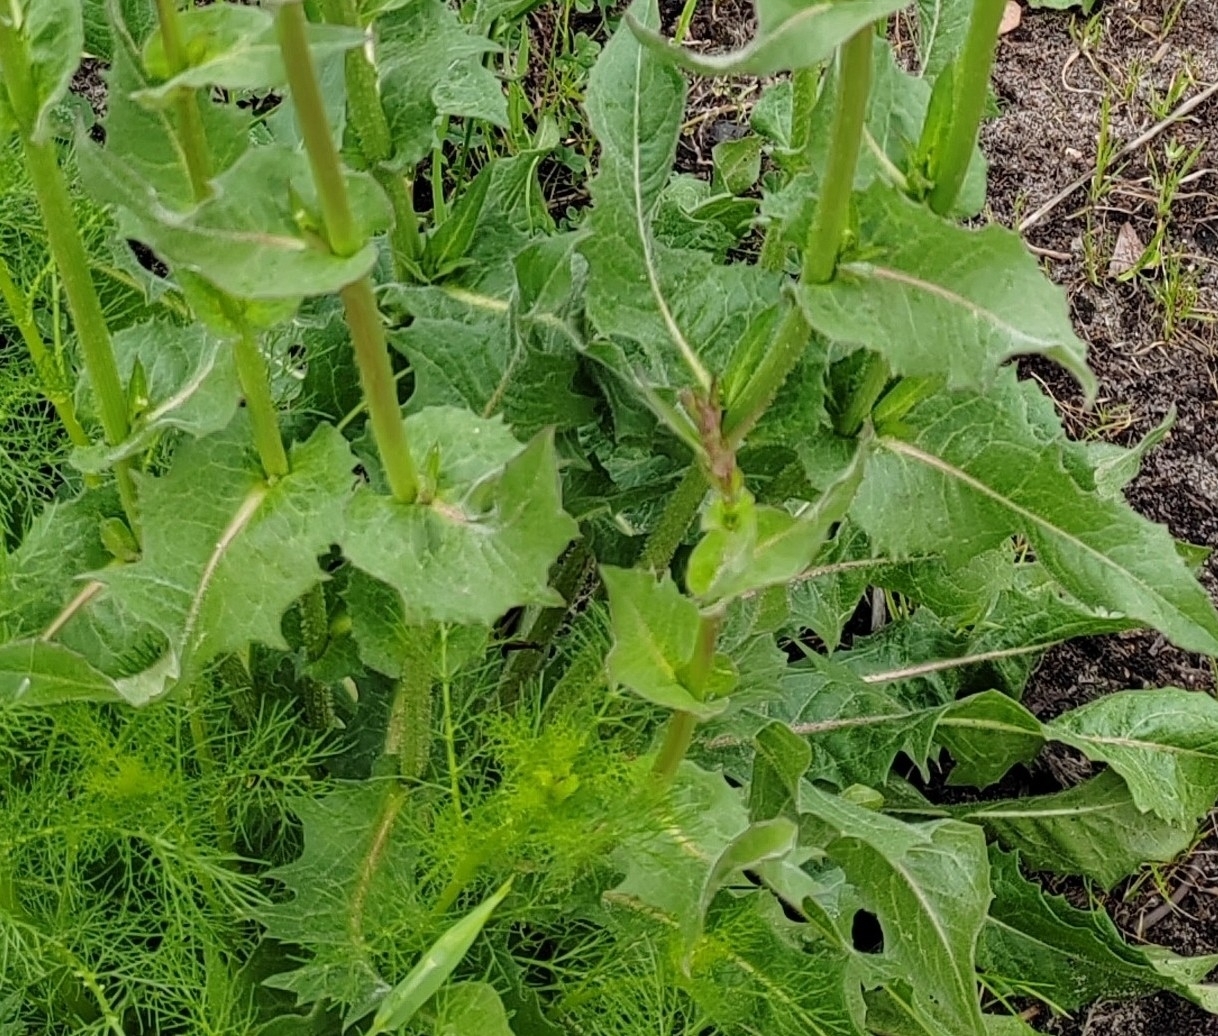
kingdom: Plantae
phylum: Tracheophyta
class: Magnoliopsida
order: Asterales
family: Asteraceae
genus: Cichorium
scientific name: Cichorium intybus
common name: Chicory
